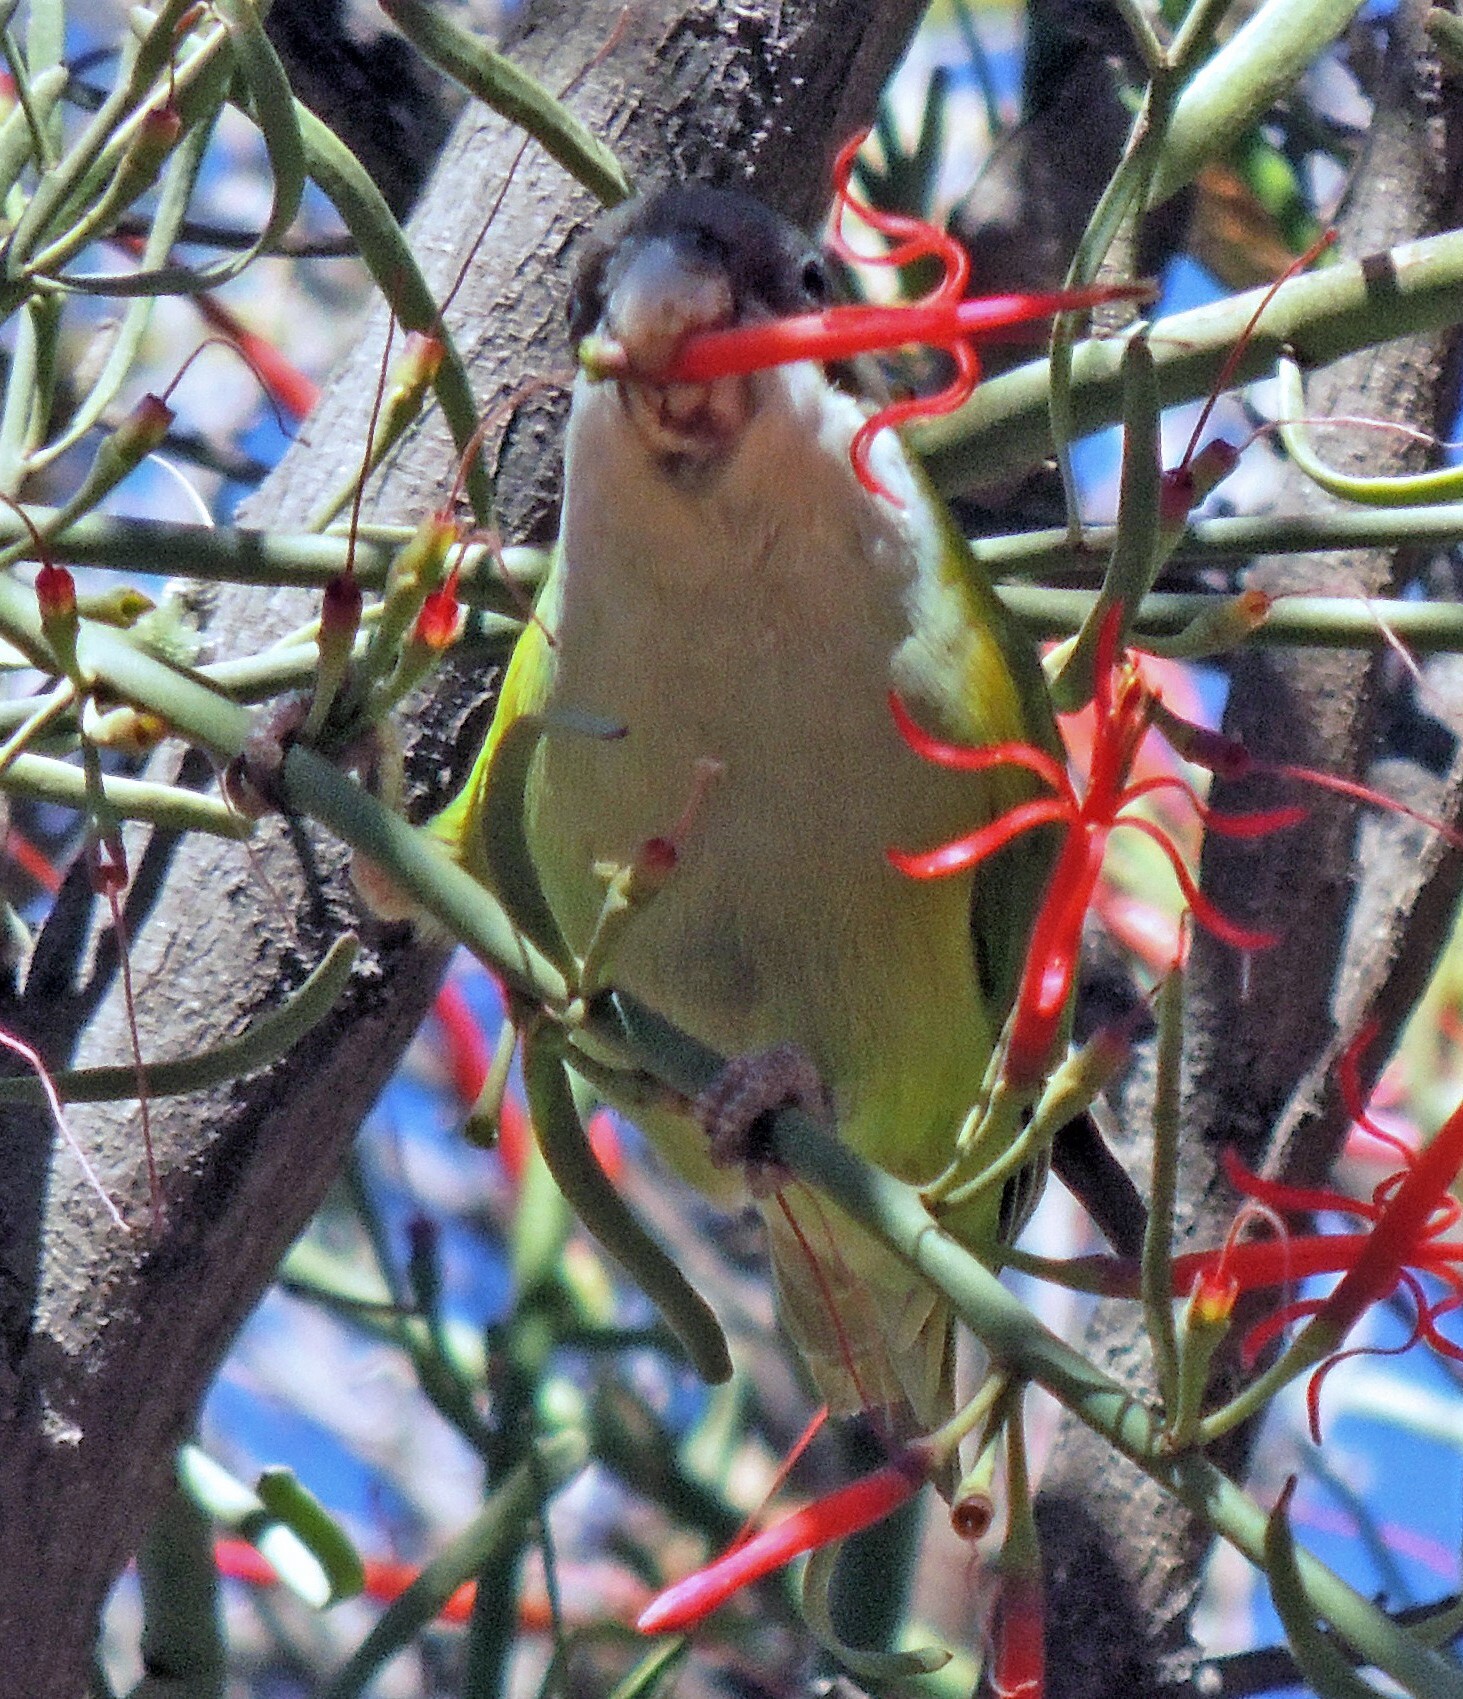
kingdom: Animalia
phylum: Chordata
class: Aves
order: Psittaciformes
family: Psittacidae
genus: Psilopsiagon
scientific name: Psilopsiagon aymara
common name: Grey-hooded parakeet
